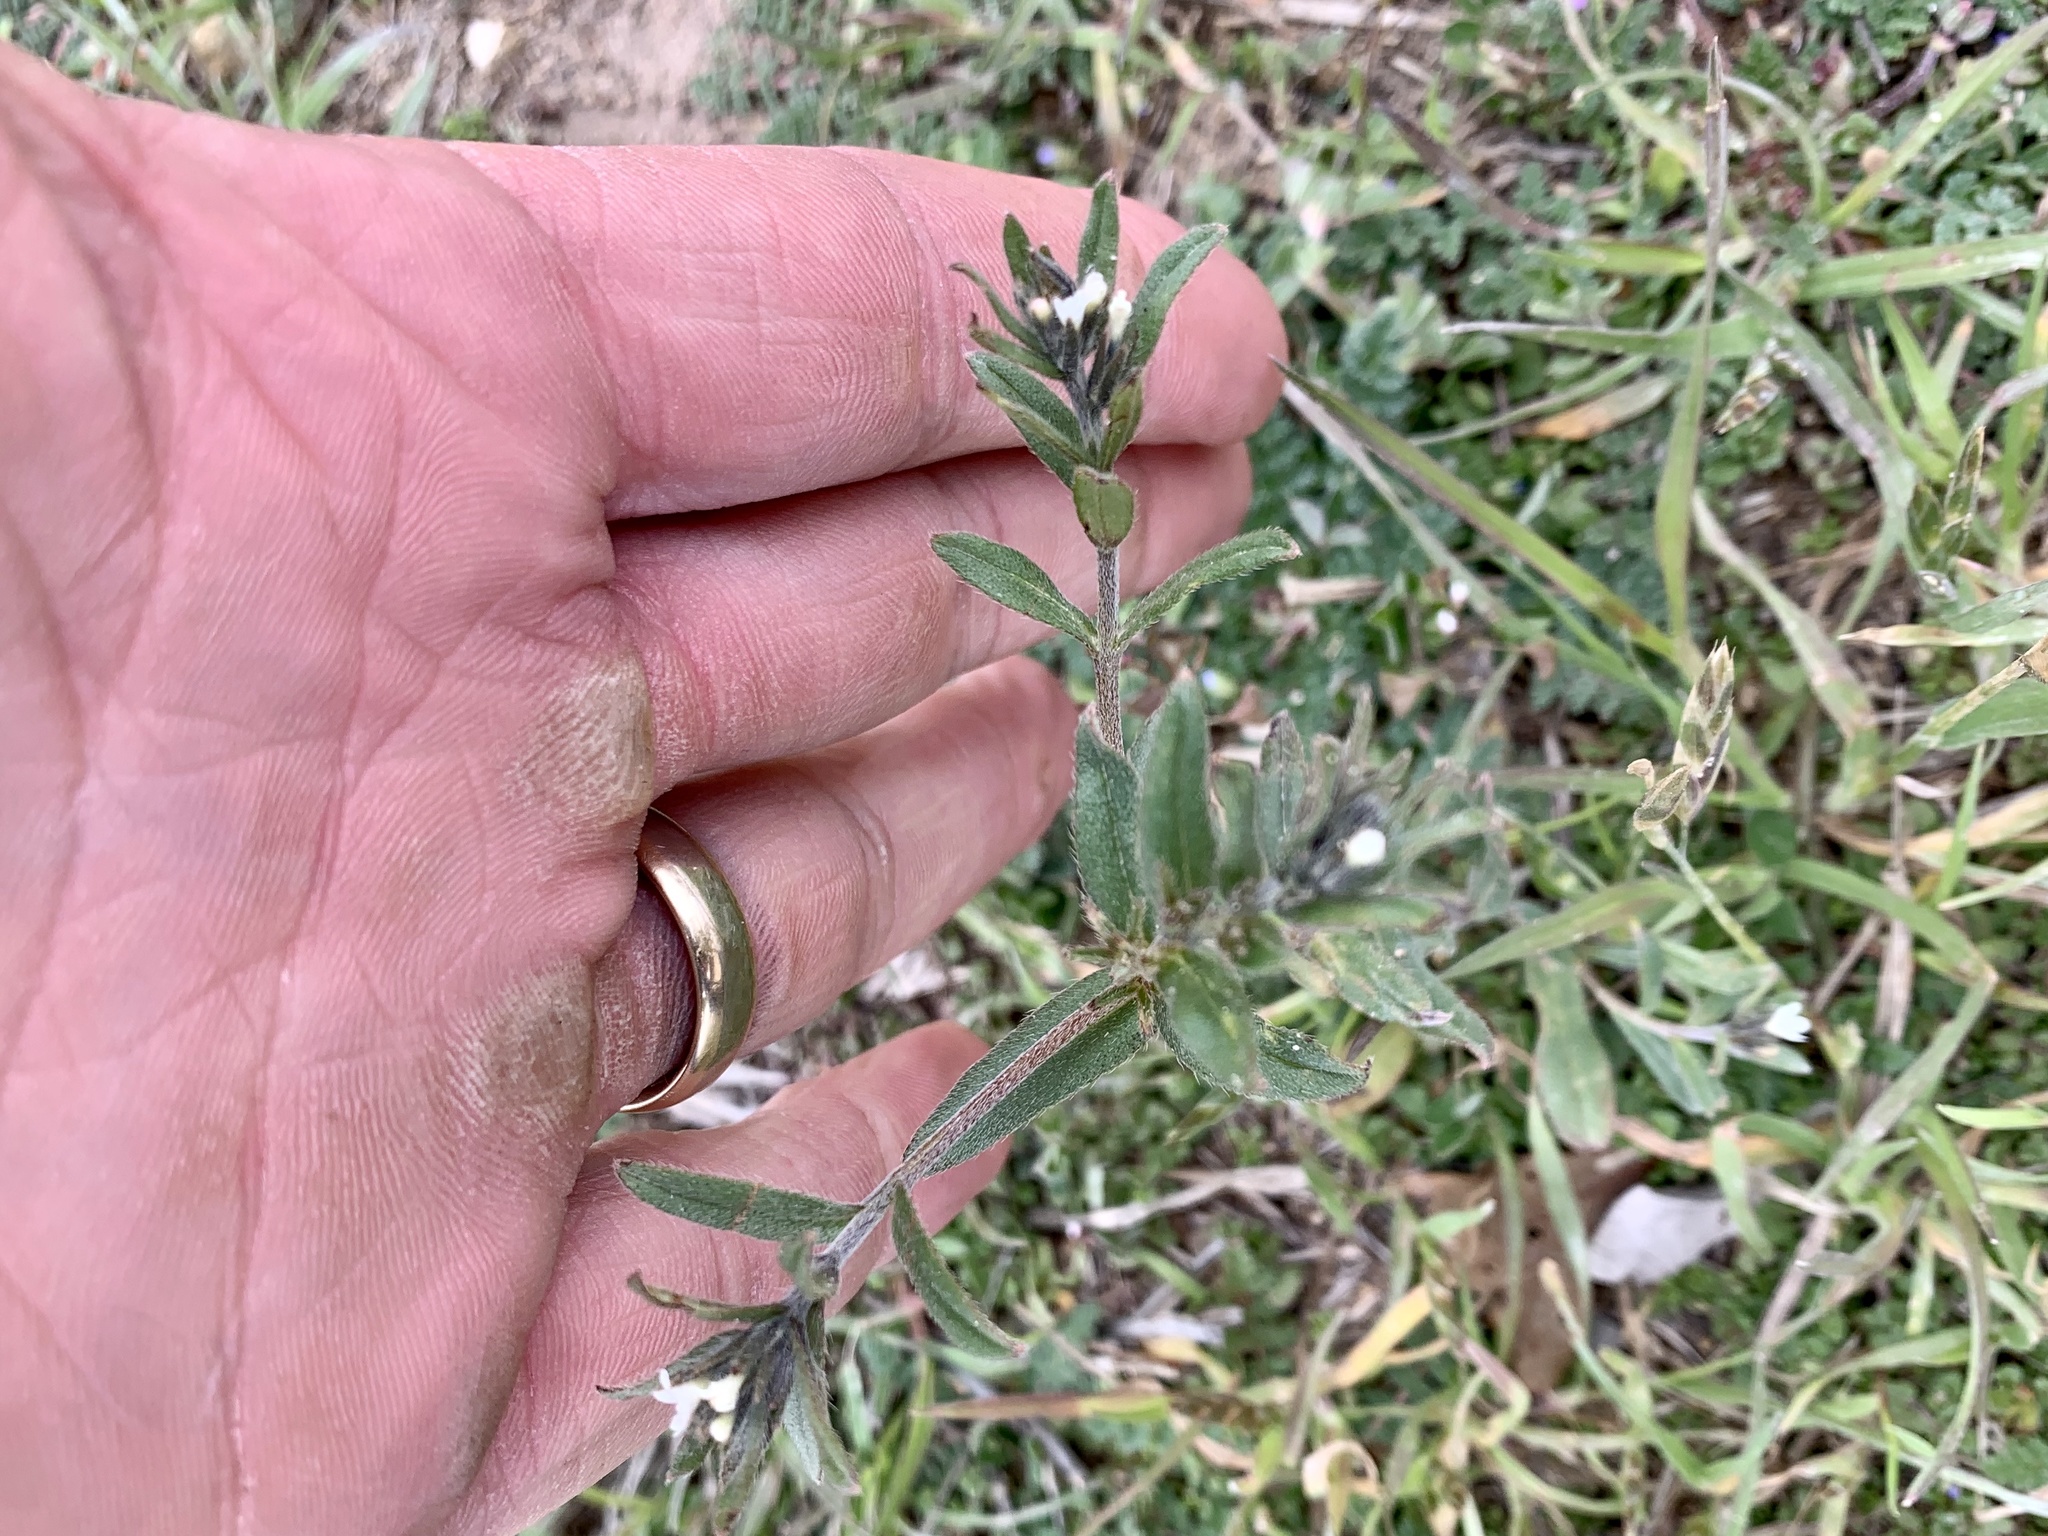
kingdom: Plantae
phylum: Tracheophyta
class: Magnoliopsida
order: Boraginales
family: Boraginaceae
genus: Buglossoides
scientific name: Buglossoides arvensis
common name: Corn gromwell
